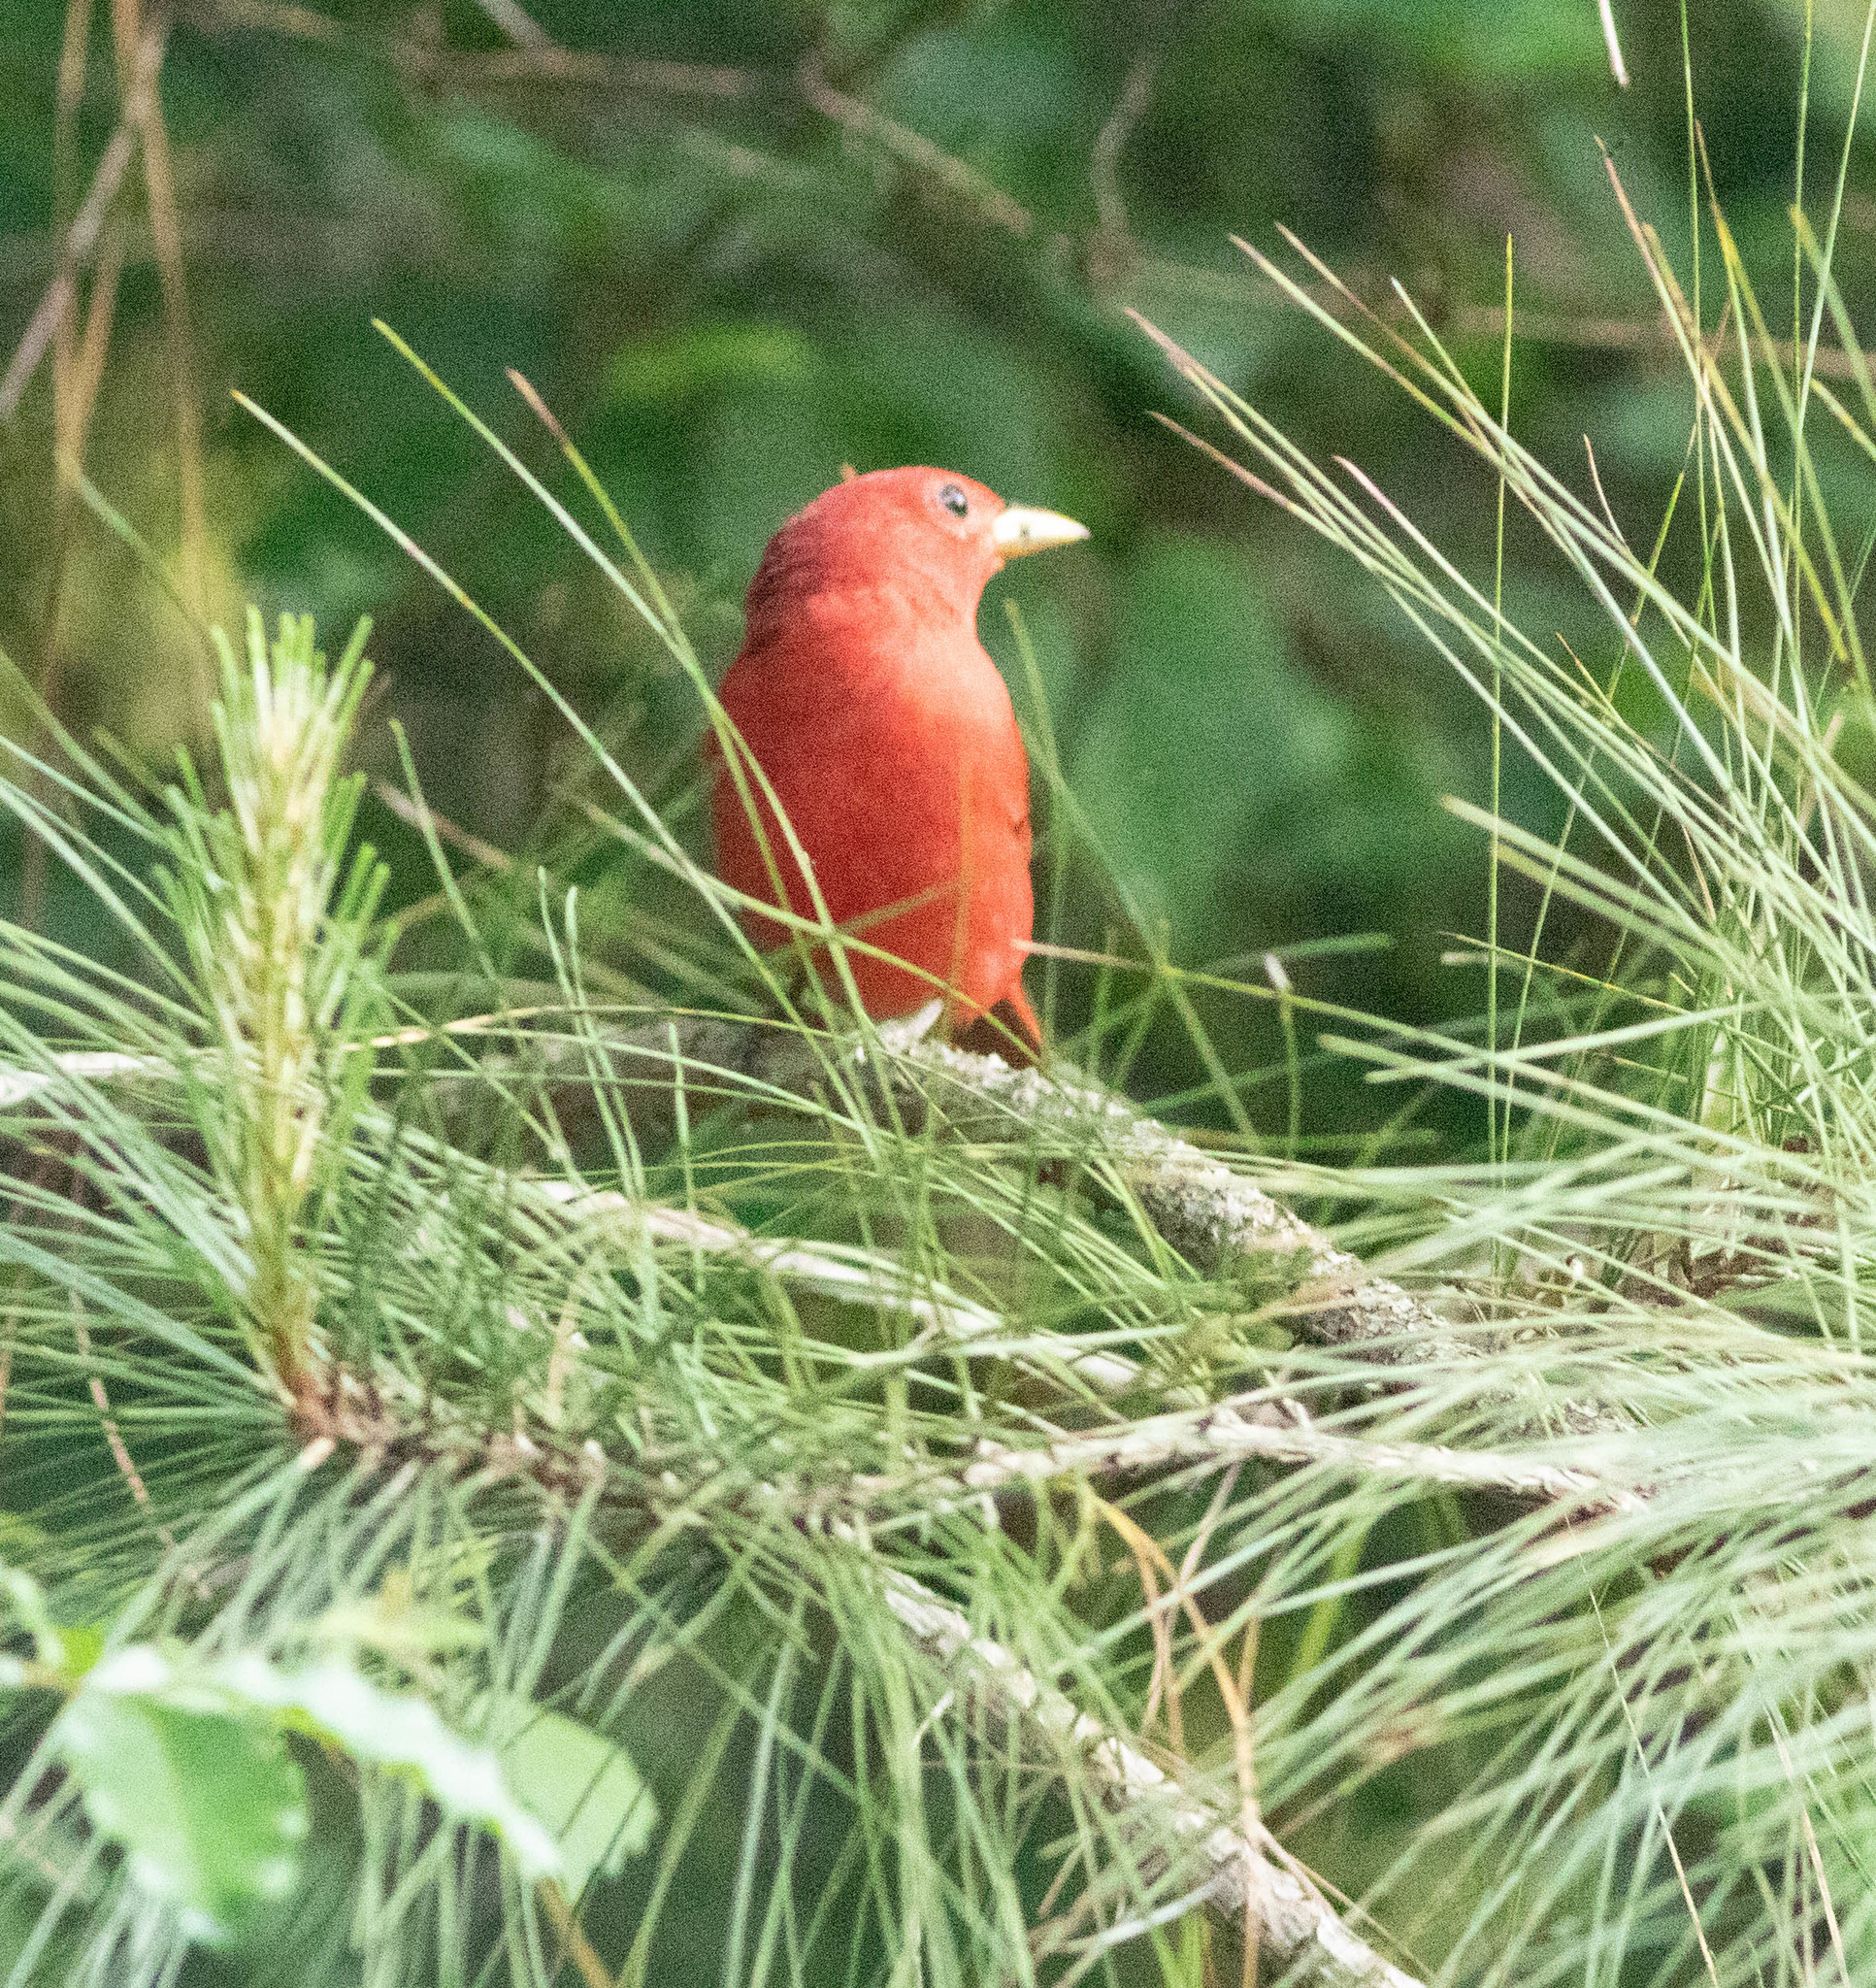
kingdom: Animalia
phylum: Chordata
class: Aves
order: Passeriformes
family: Cardinalidae
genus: Piranga
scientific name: Piranga rubra
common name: Summer tanager
